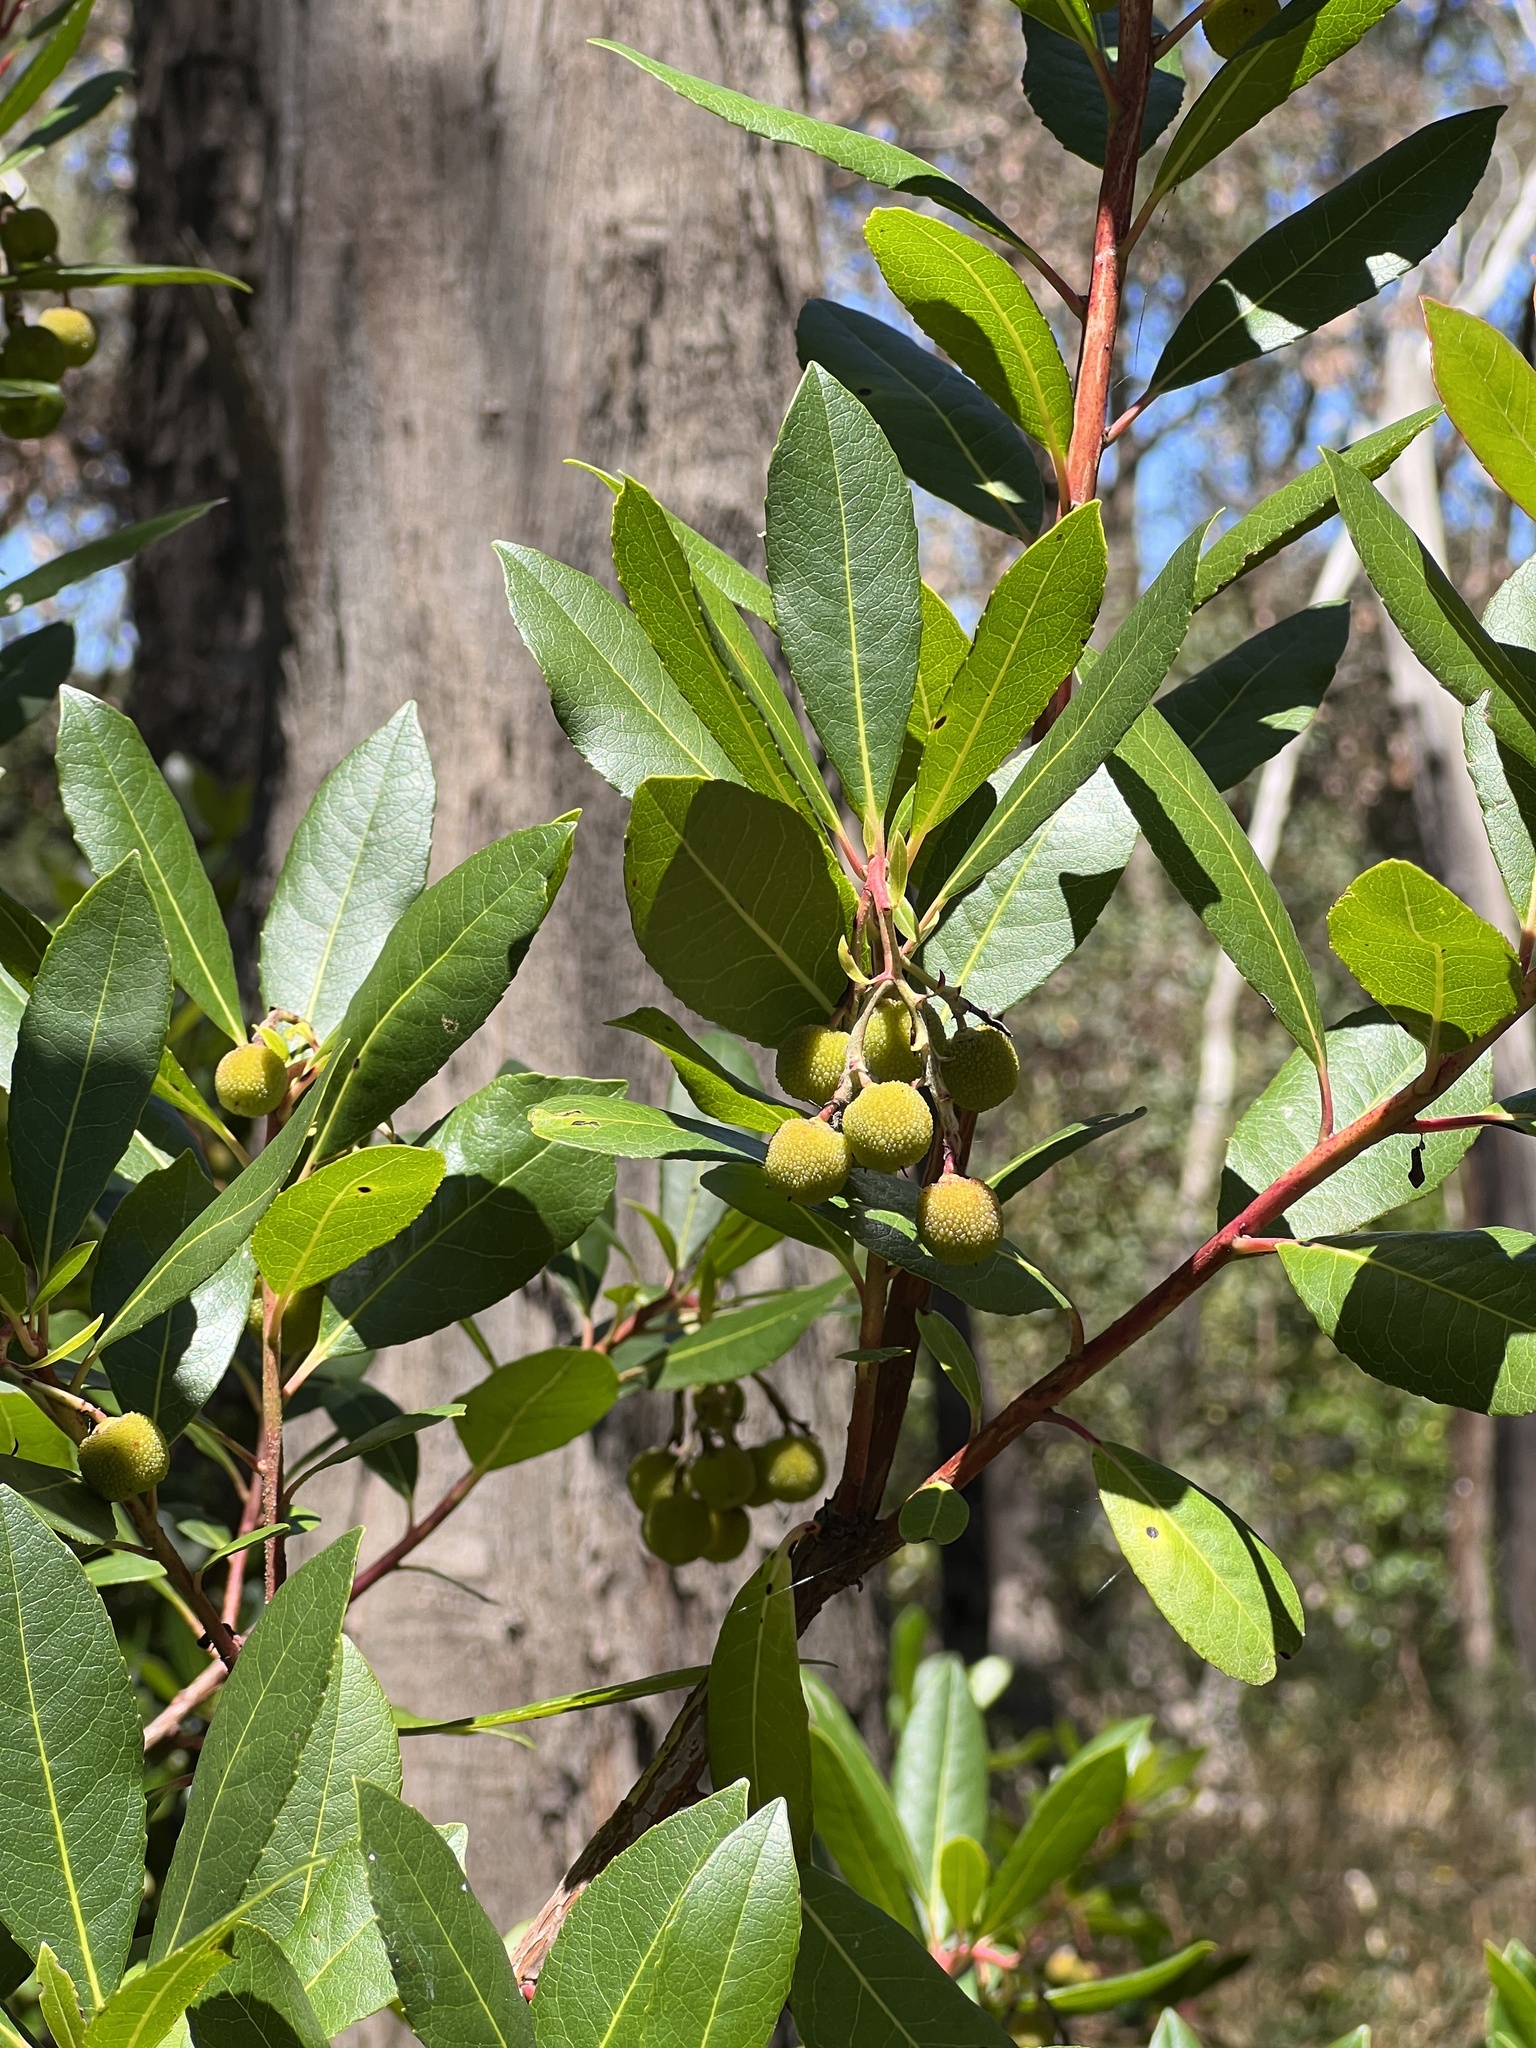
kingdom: Plantae
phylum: Tracheophyta
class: Magnoliopsida
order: Ericales
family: Ericaceae
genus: Arbutus
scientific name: Arbutus unedo
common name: Strawberry-tree
